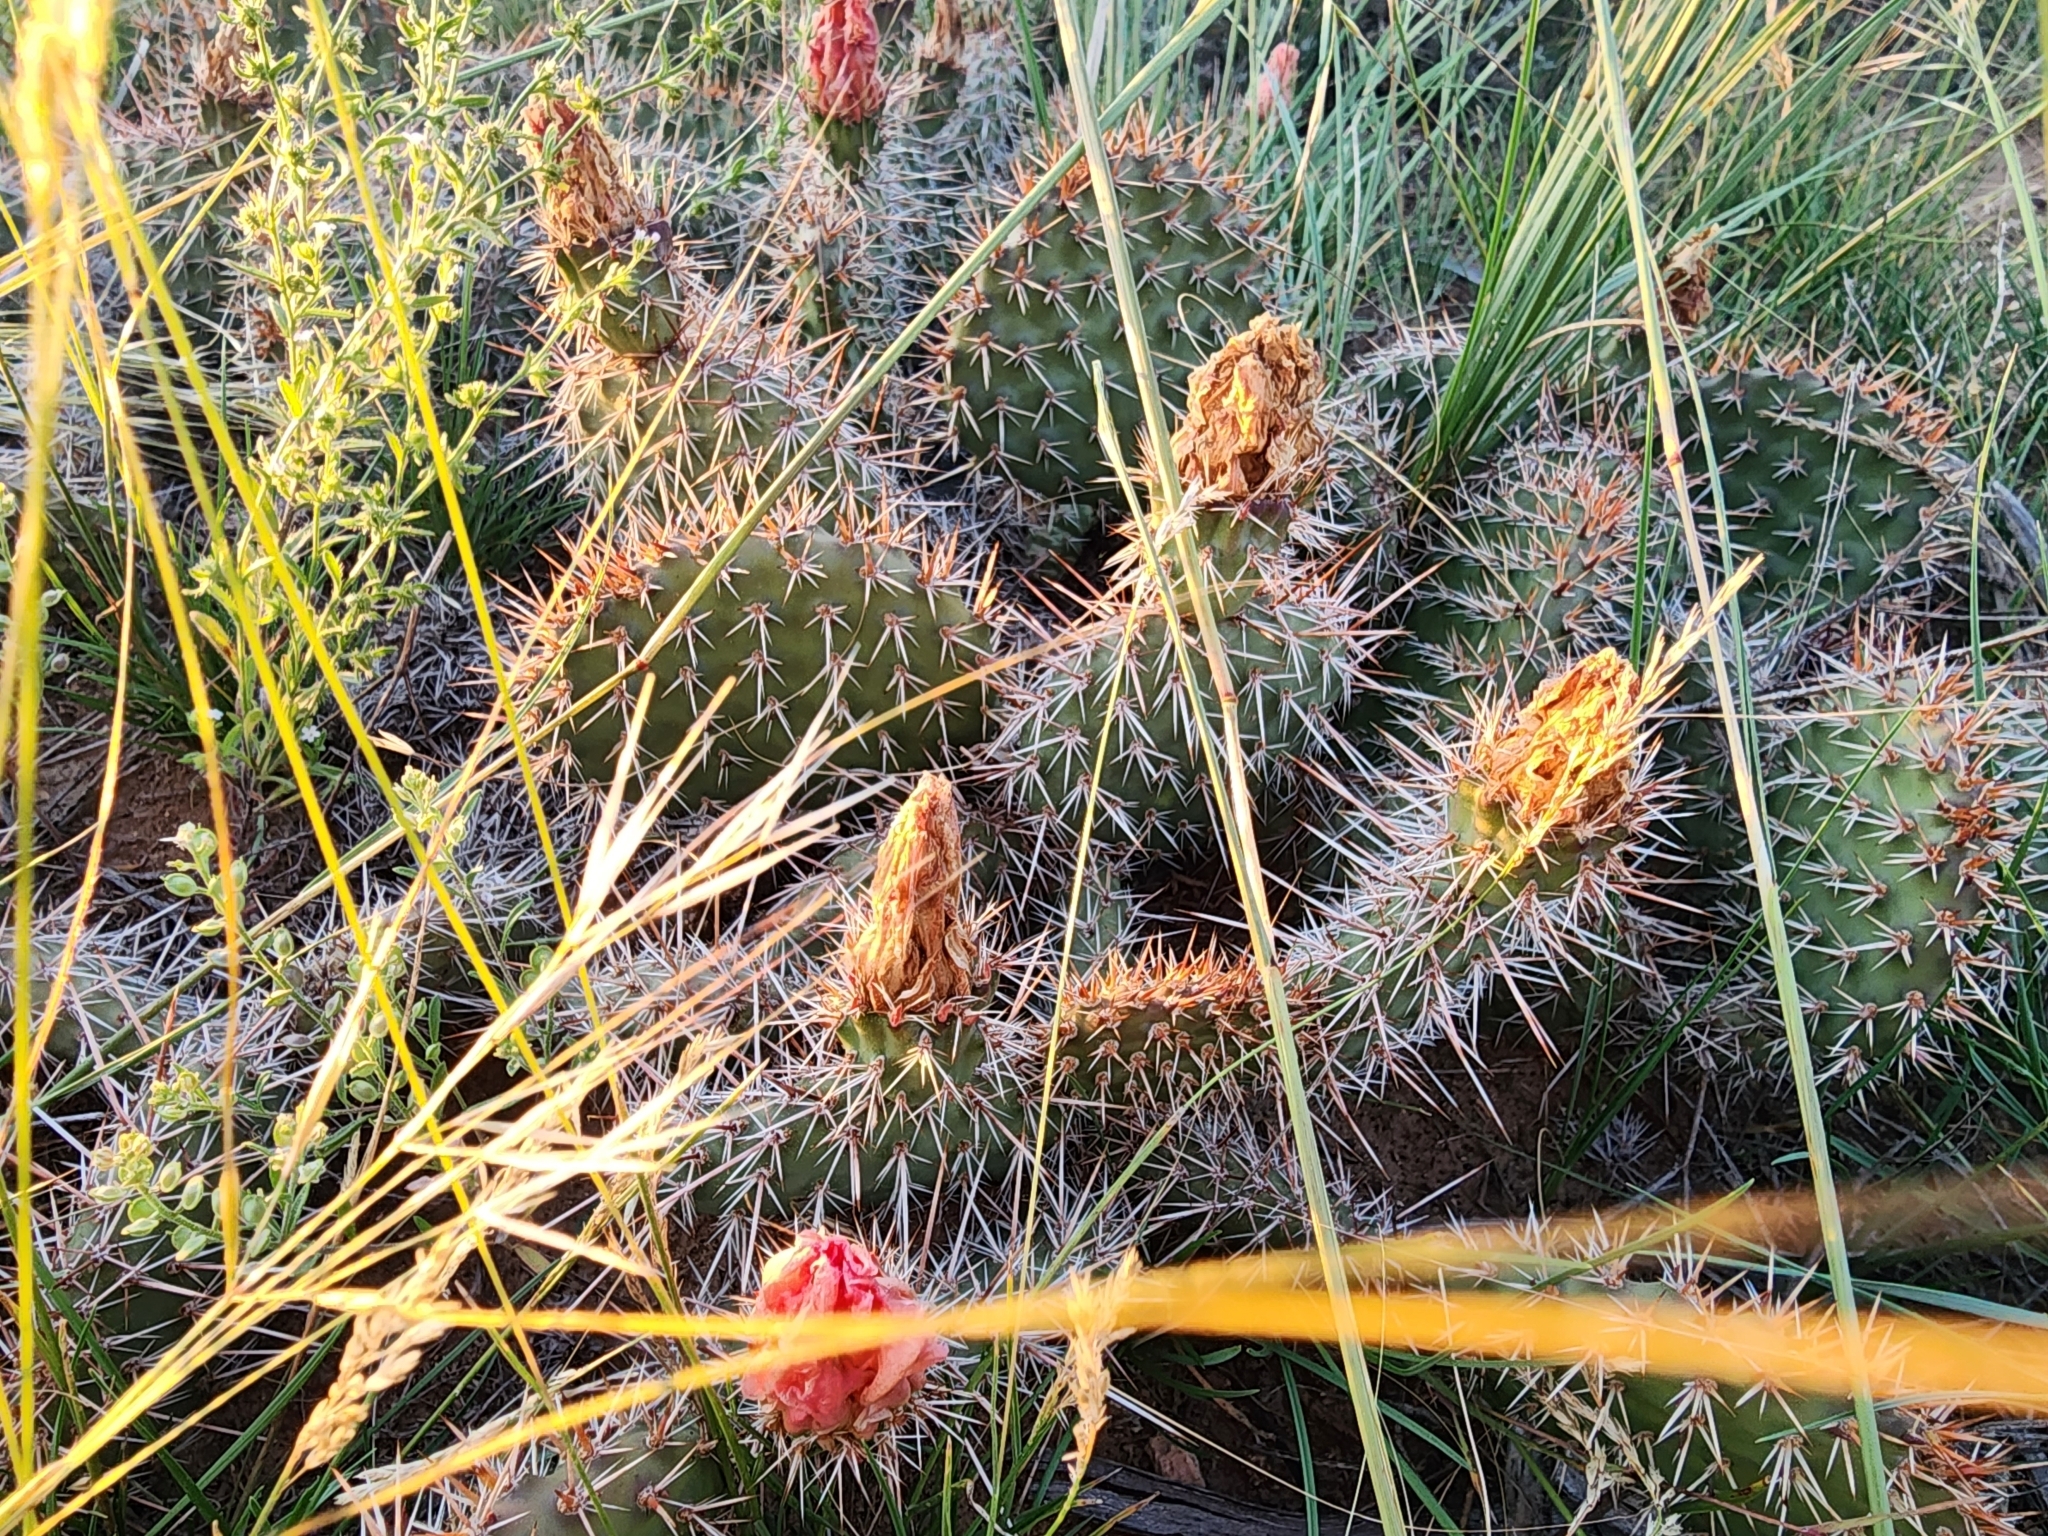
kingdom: Plantae
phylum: Tracheophyta
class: Magnoliopsida
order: Caryophyllales
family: Cactaceae
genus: Opuntia
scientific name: Opuntia polyacantha
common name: Plains prickly-pear
